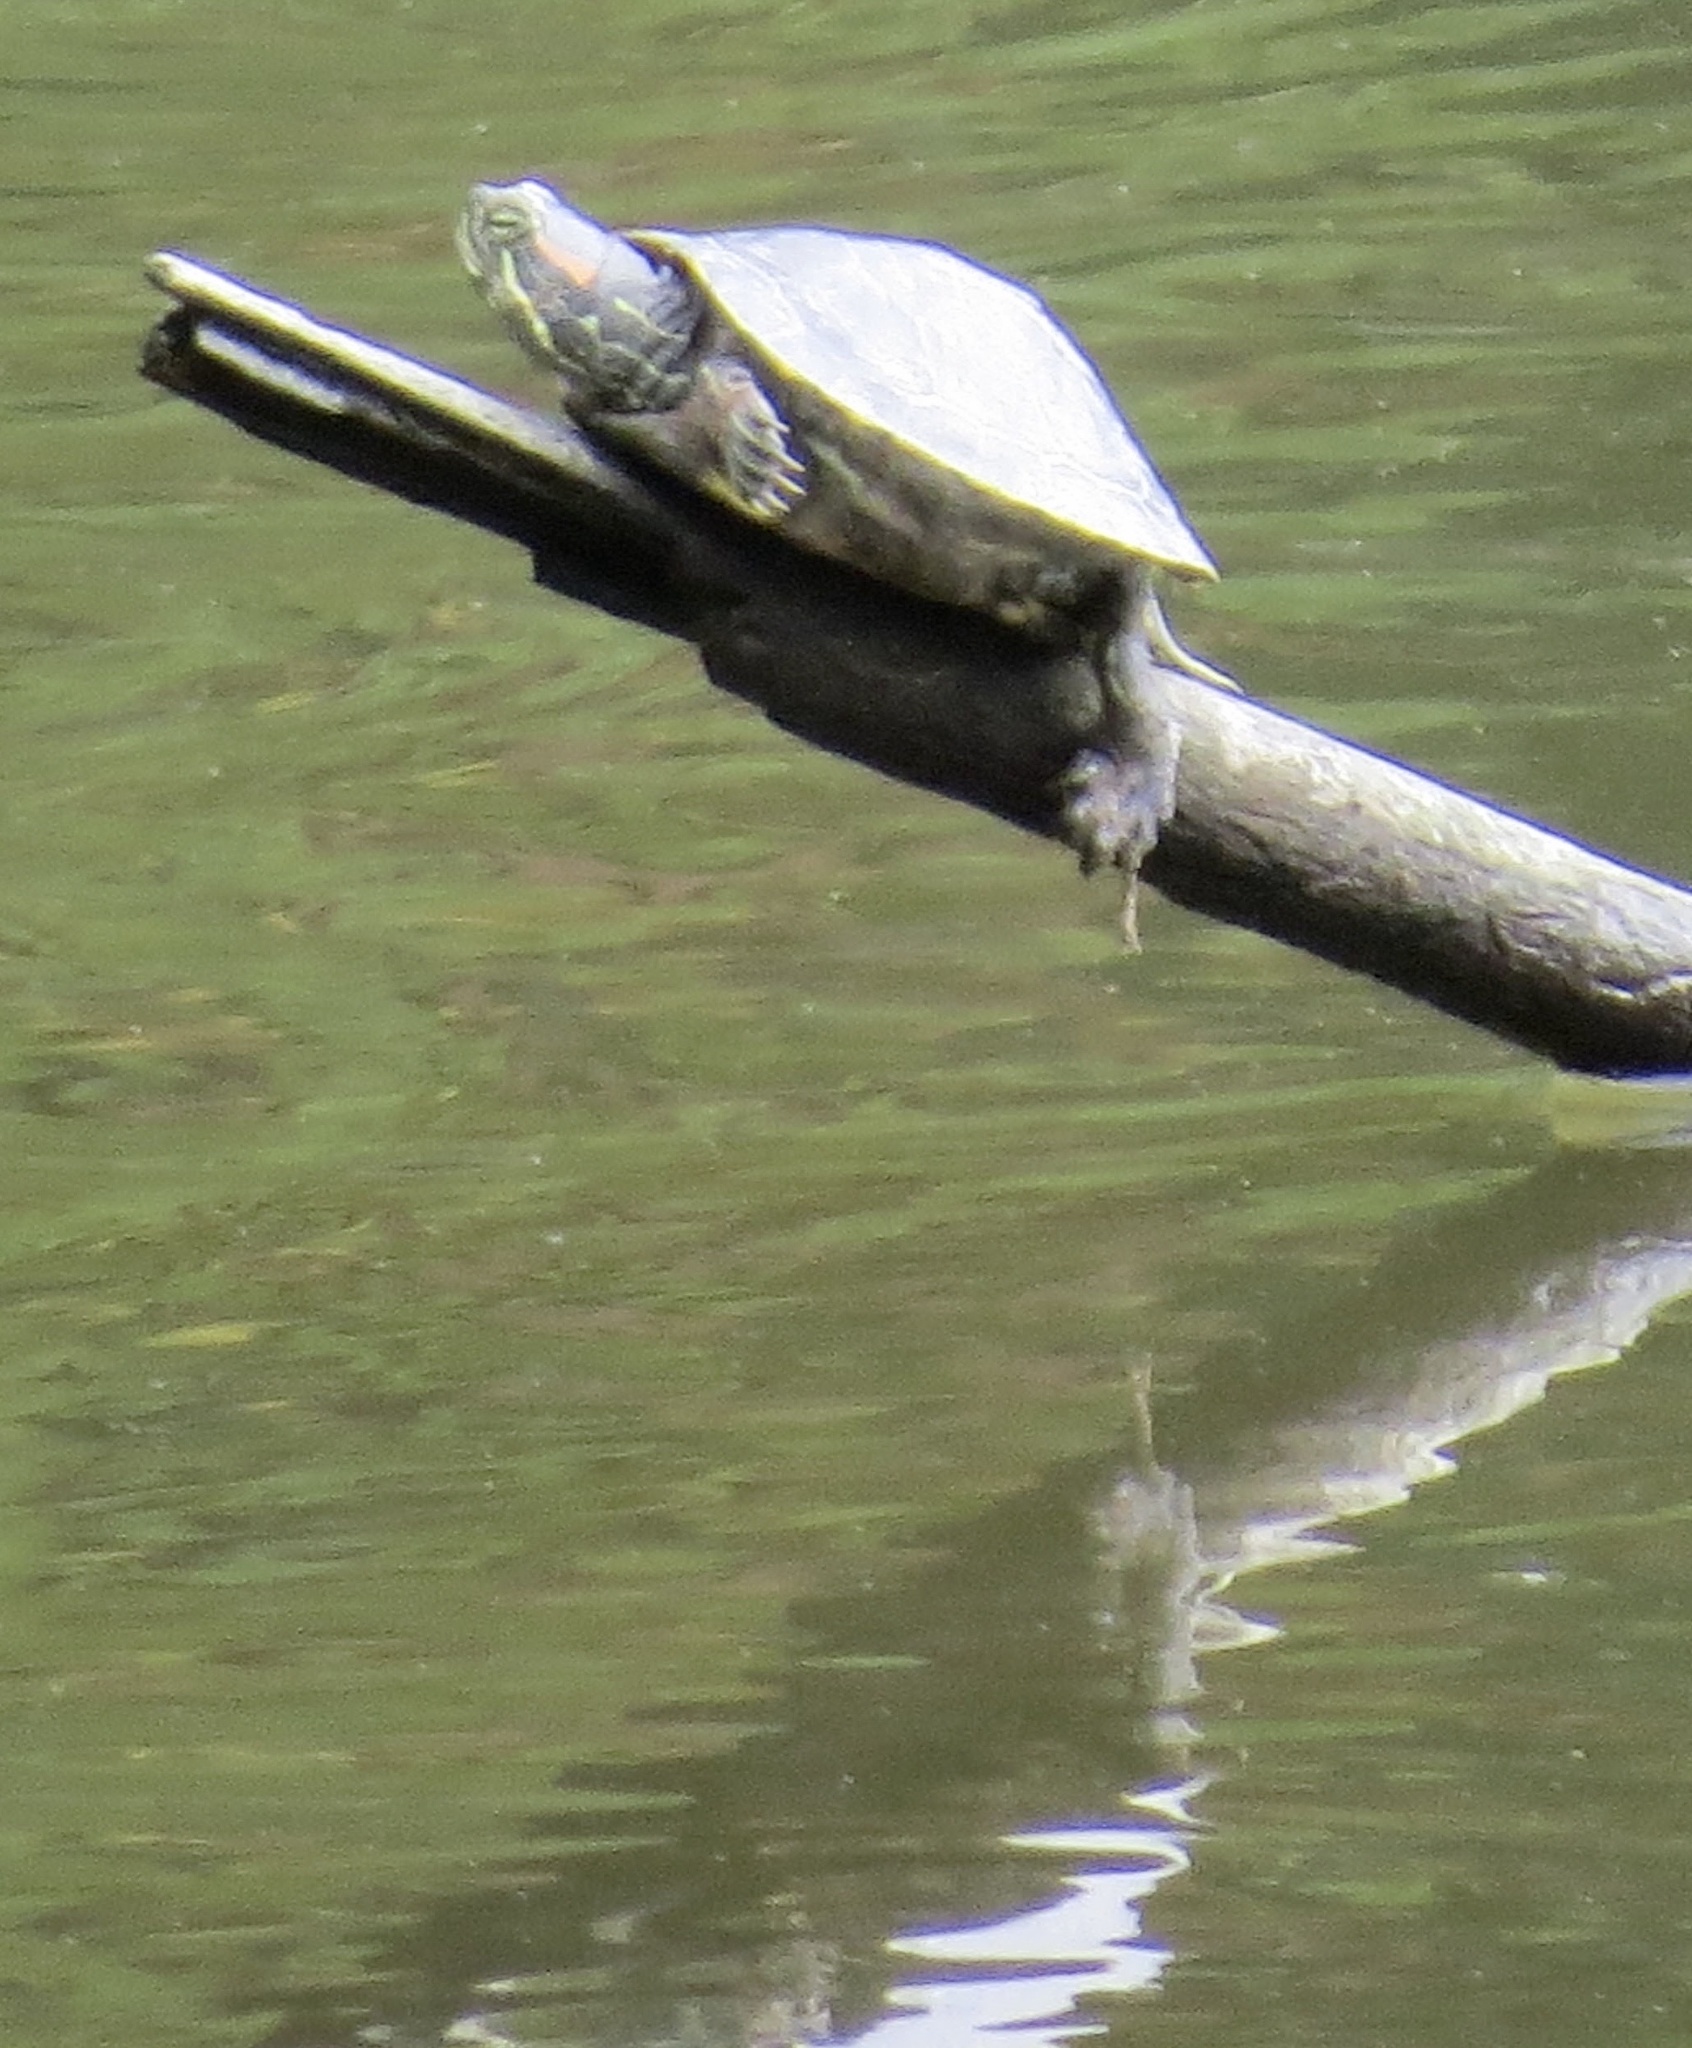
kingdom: Animalia
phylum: Chordata
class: Testudines
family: Emydidae
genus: Trachemys
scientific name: Trachemys scripta
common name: Slider
